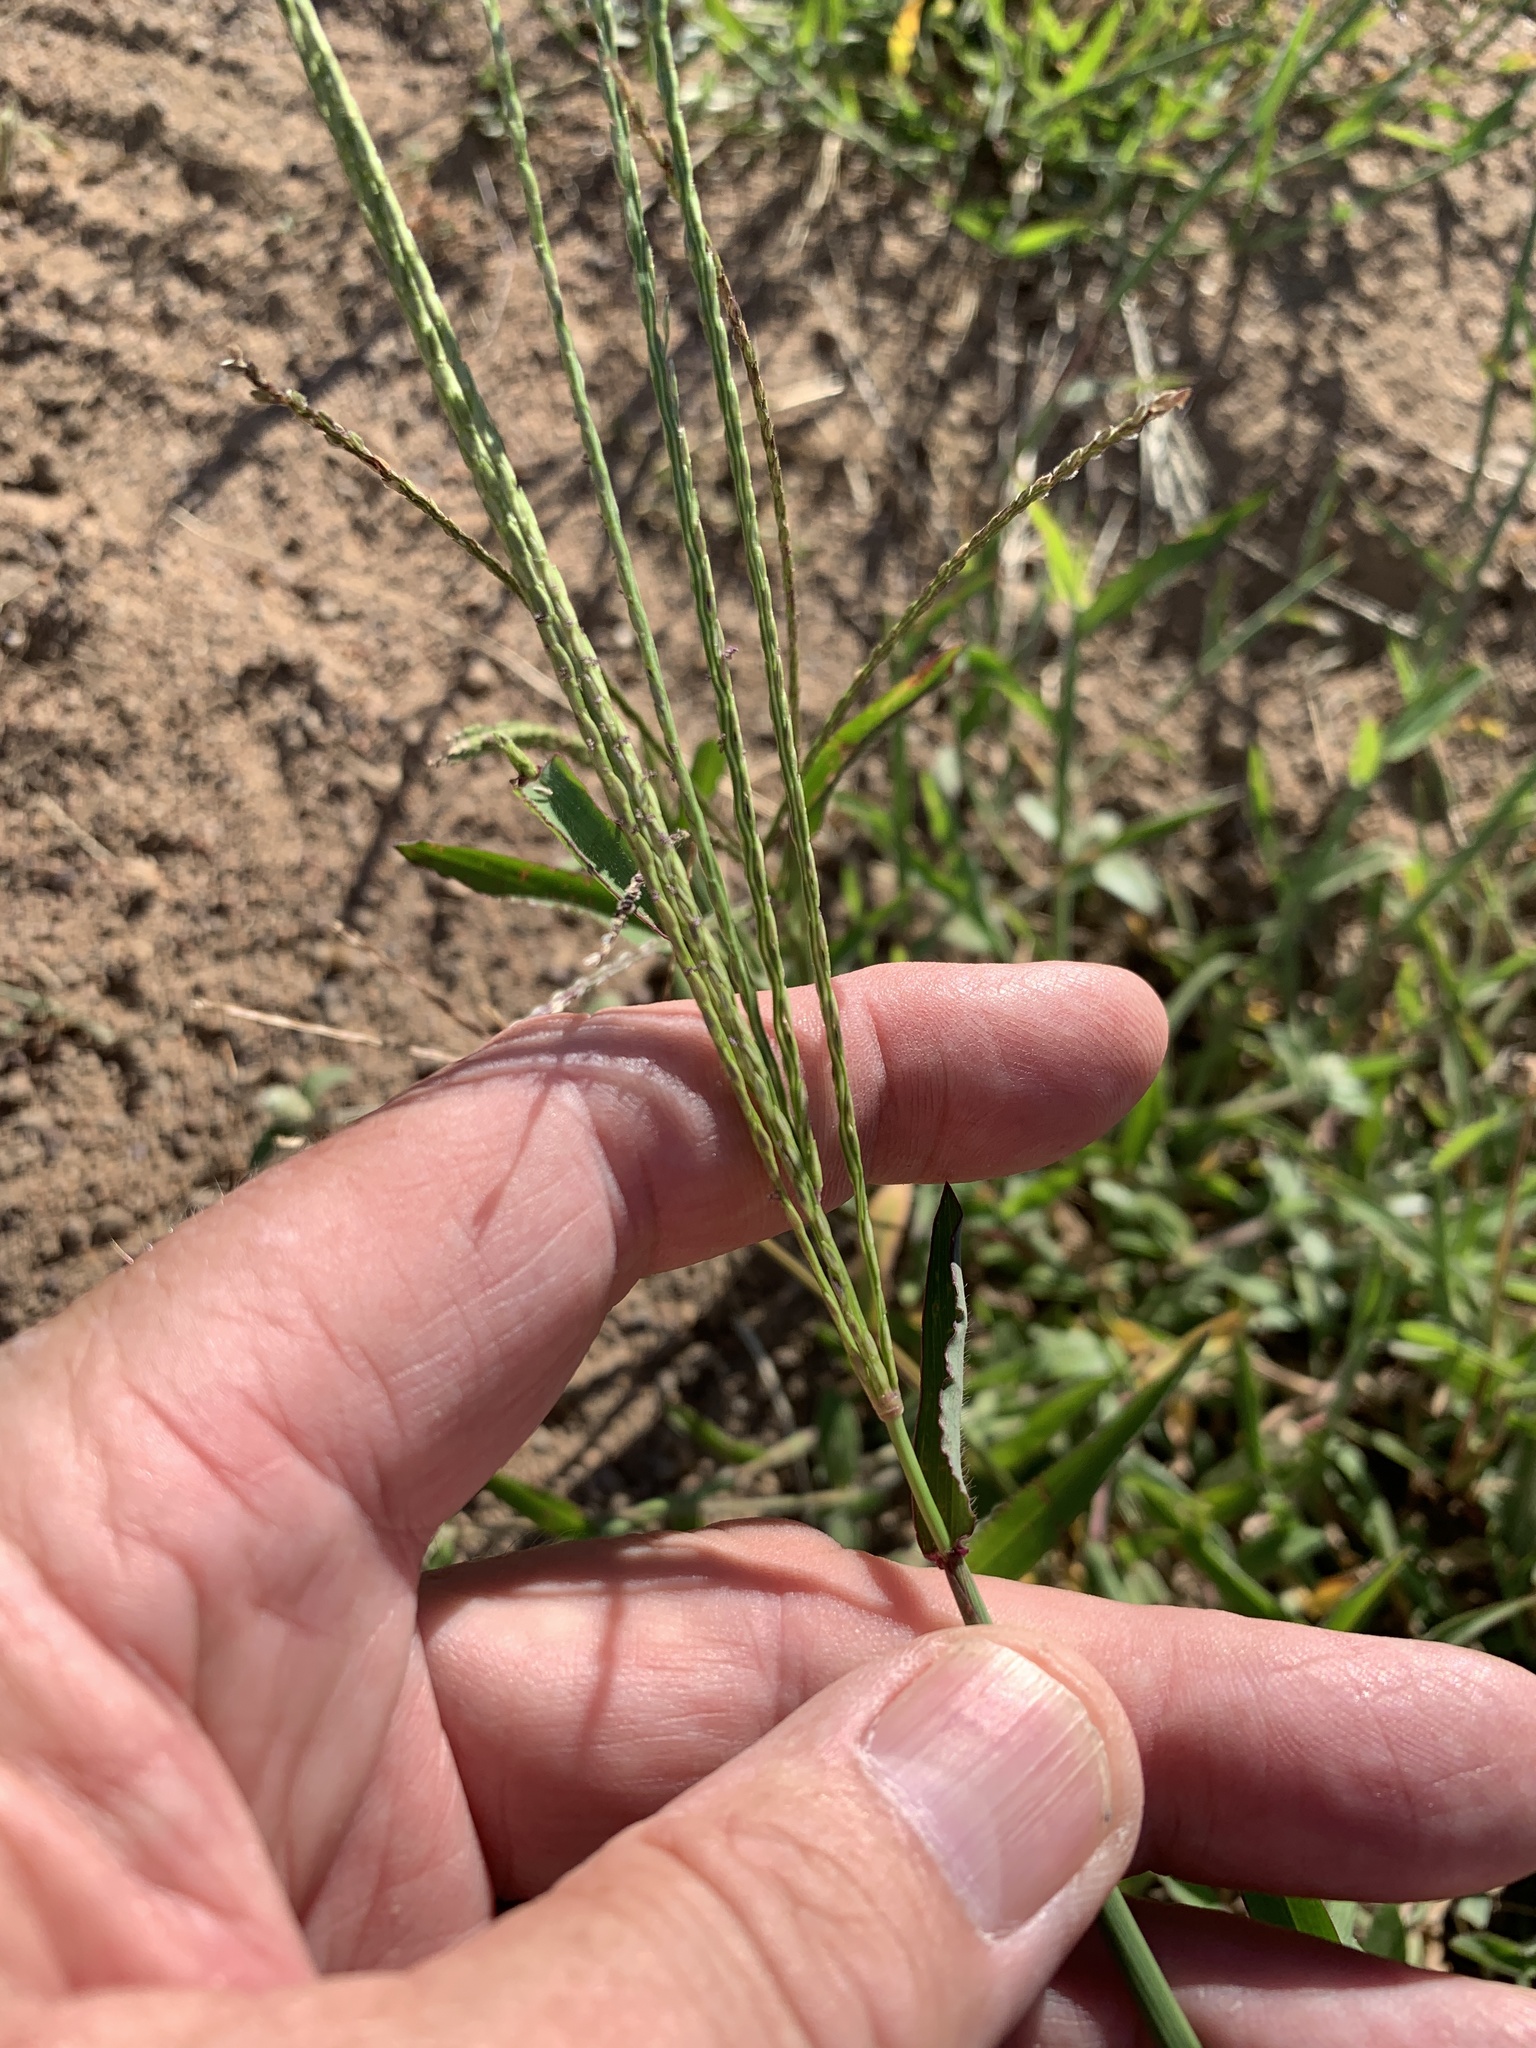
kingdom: Plantae
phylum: Tracheophyta
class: Liliopsida
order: Poales
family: Poaceae
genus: Digitaria
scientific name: Digitaria sanguinalis
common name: Hairy crabgrass
